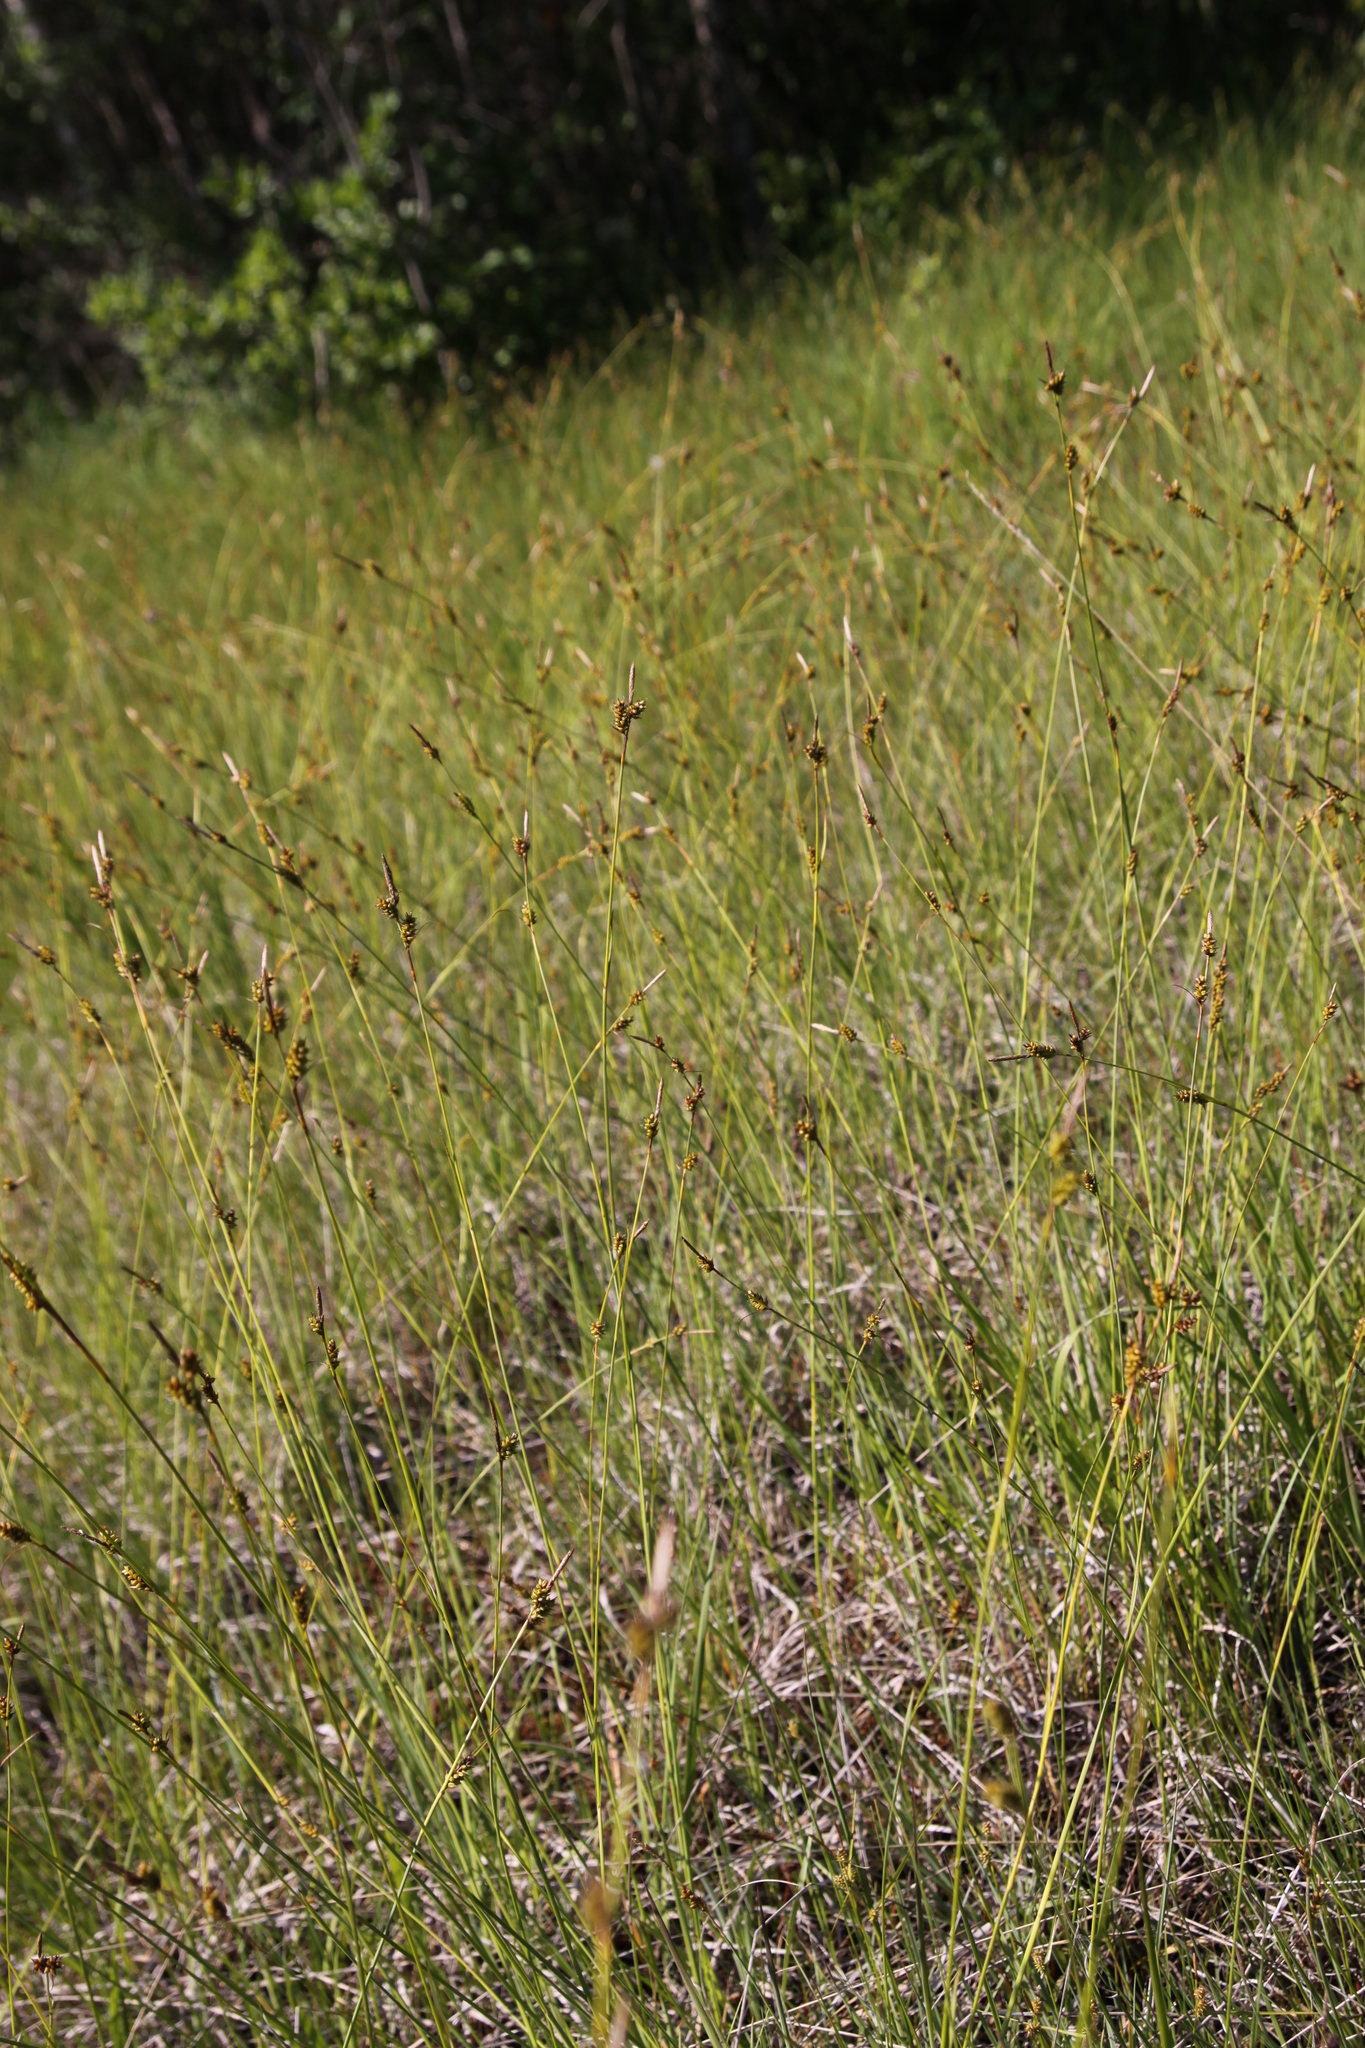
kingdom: Plantae
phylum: Tracheophyta
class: Liliopsida
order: Poales
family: Cyperaceae
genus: Carex
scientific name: Carex hostiana
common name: Tawny sedge
